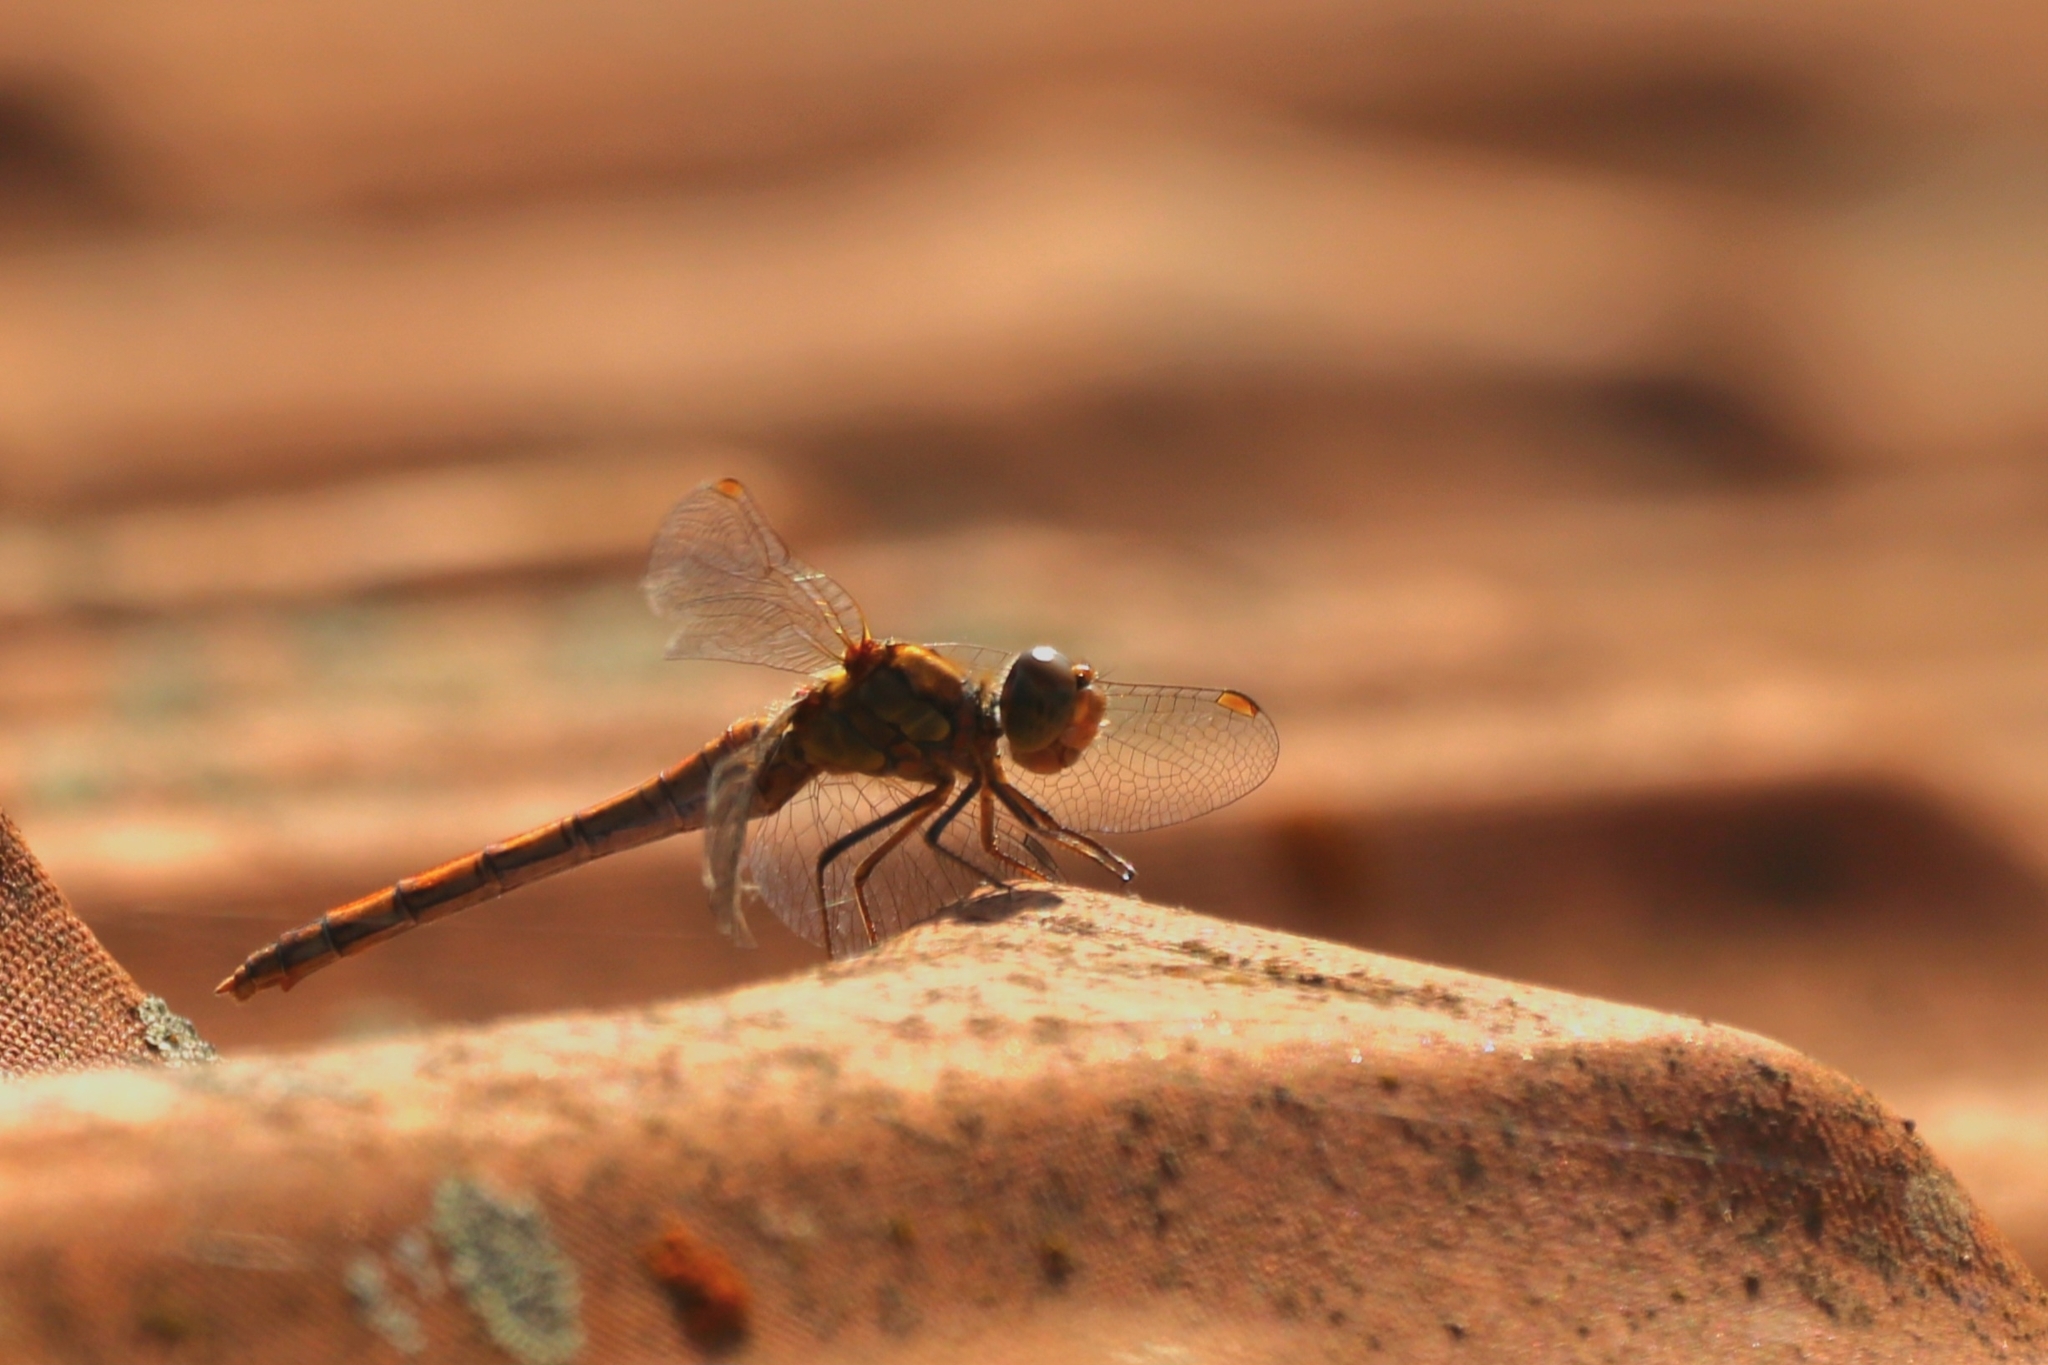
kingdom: Animalia
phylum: Arthropoda
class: Insecta
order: Odonata
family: Libellulidae
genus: Sympetrum
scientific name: Sympetrum striolatum
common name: Common darter
